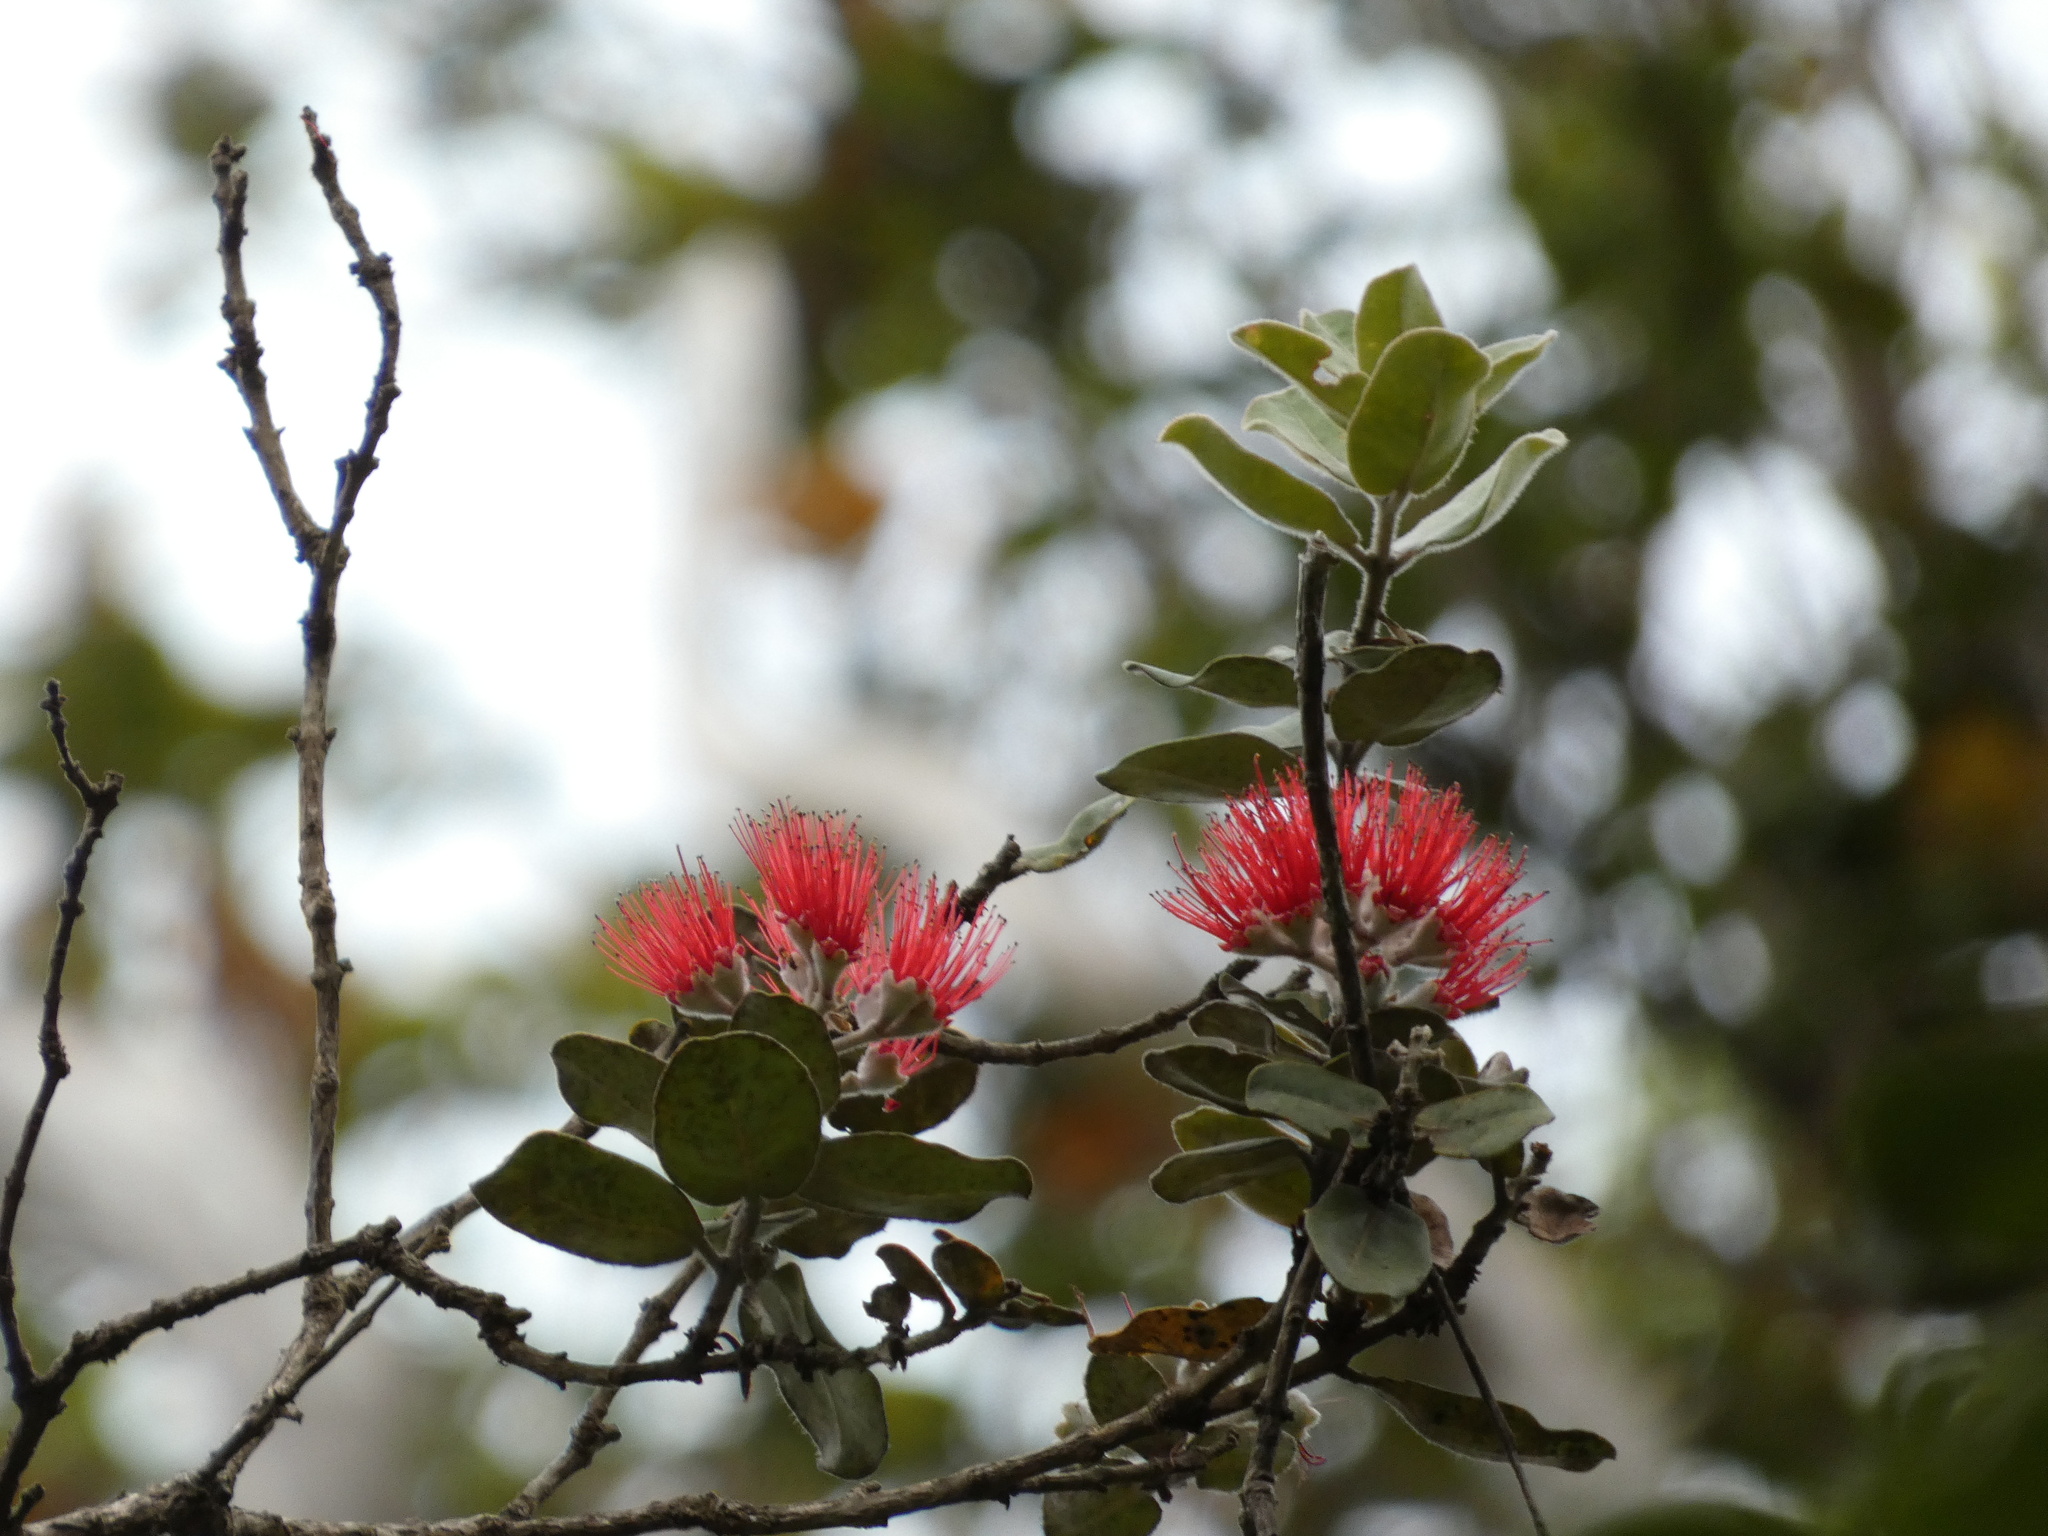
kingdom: Plantae
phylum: Tracheophyta
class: Magnoliopsida
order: Myrtales
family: Myrtaceae
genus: Metrosideros
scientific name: Metrosideros polymorpha
